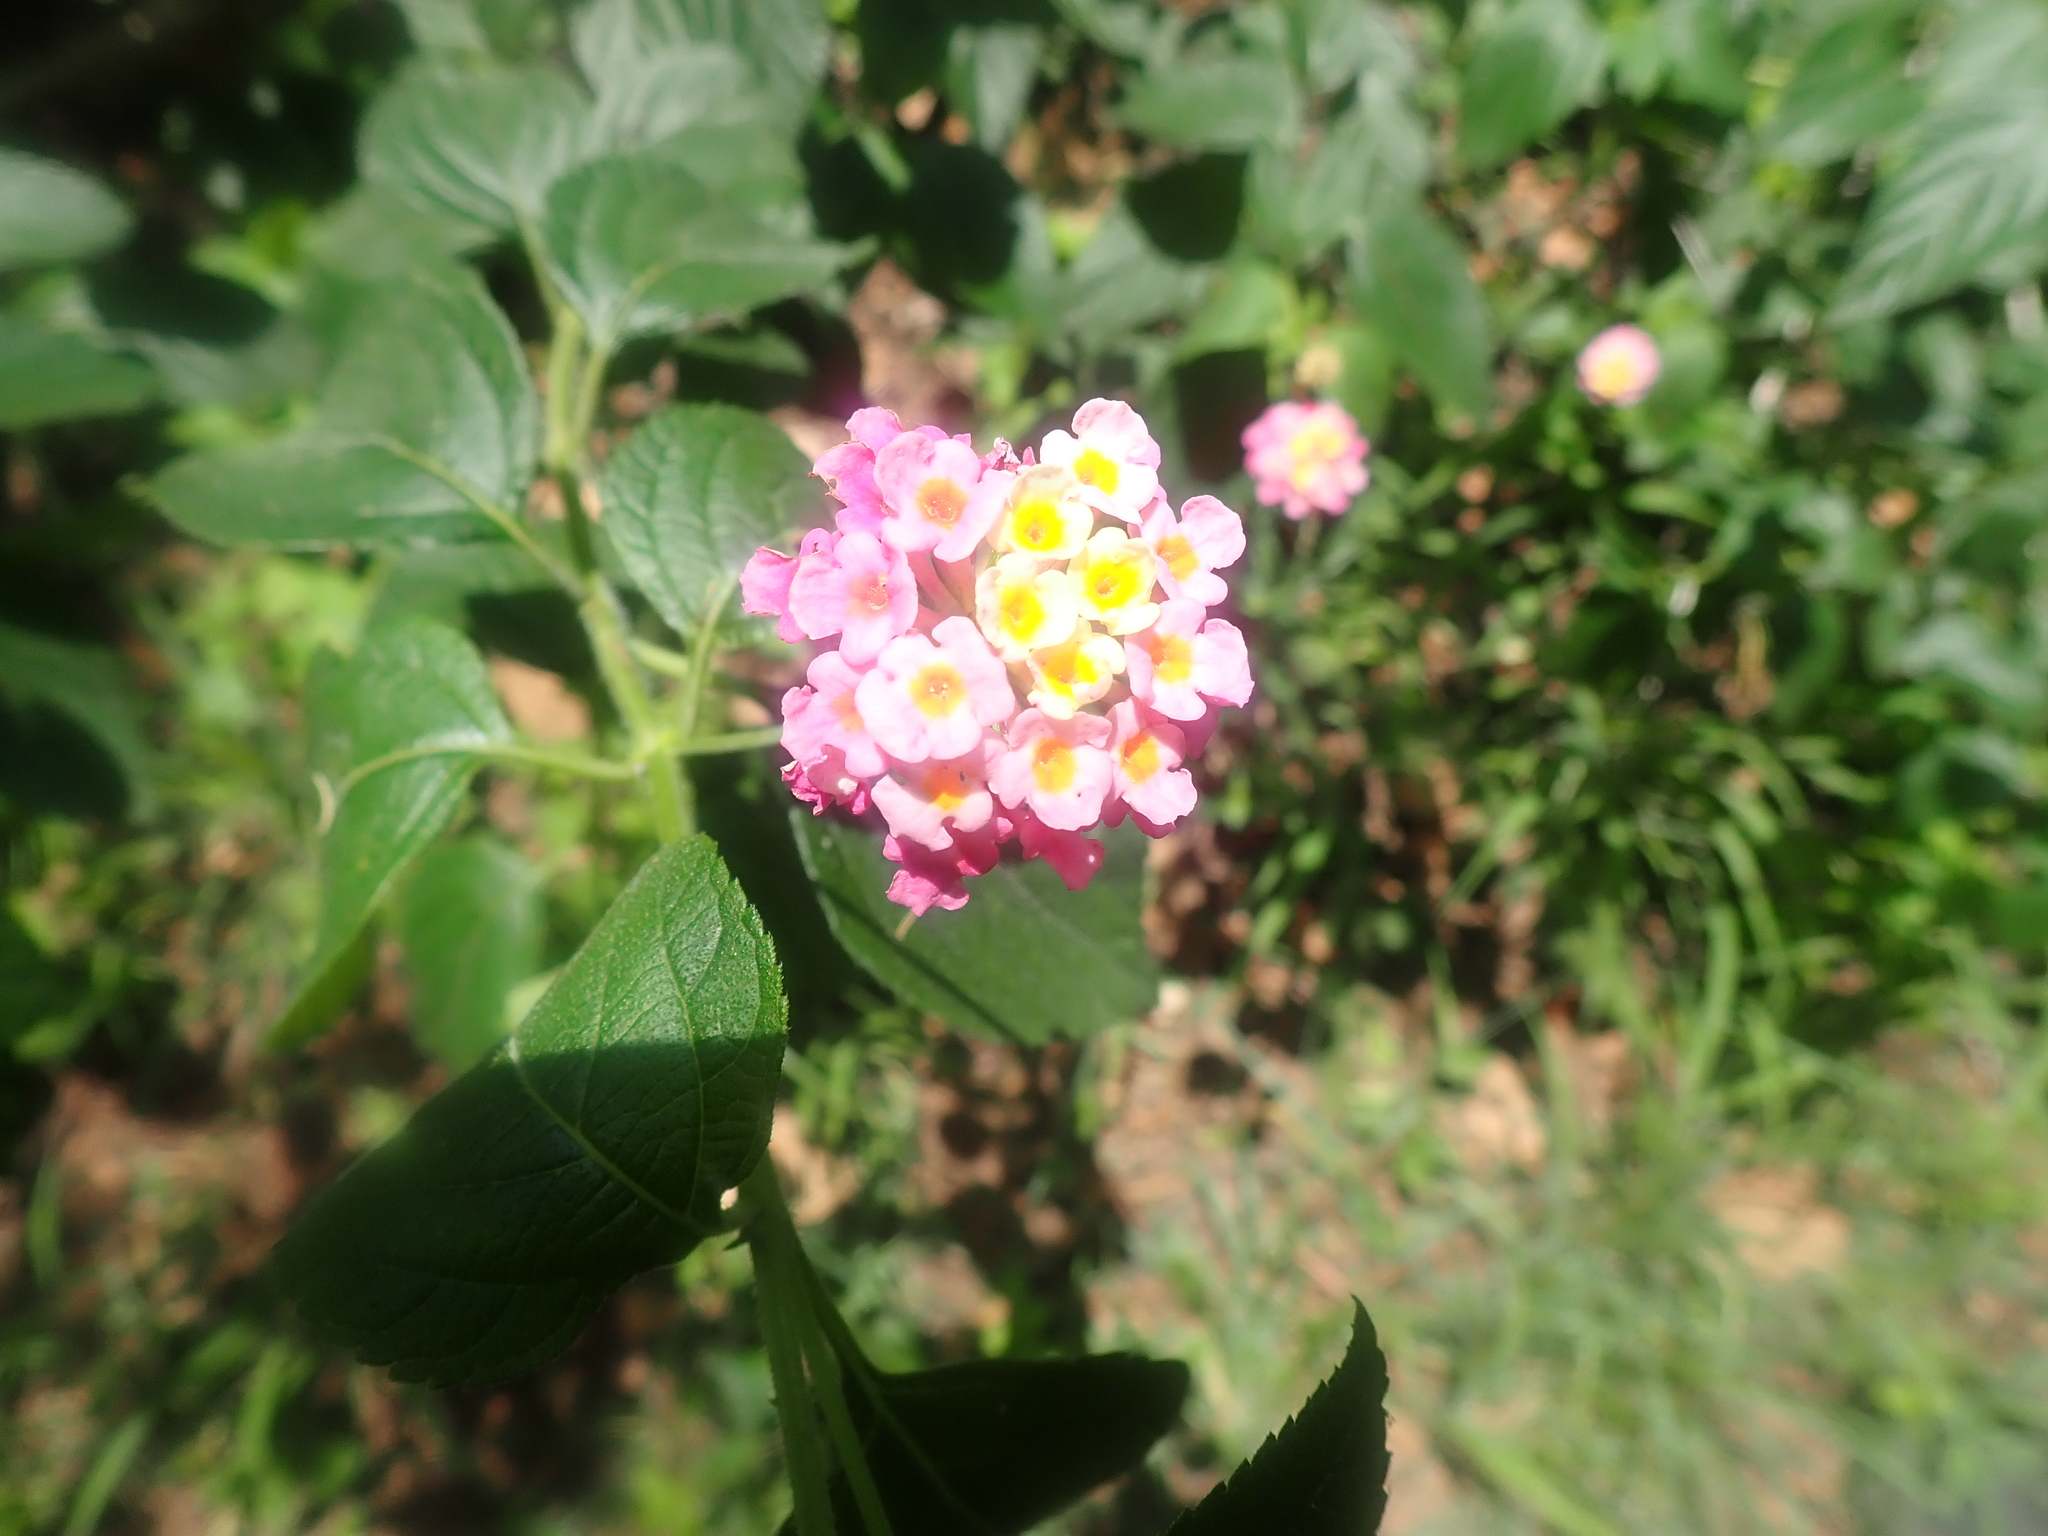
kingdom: Plantae
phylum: Tracheophyta
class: Magnoliopsida
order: Lamiales
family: Verbenaceae
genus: Lantana
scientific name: Lantana camara
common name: Lantana
